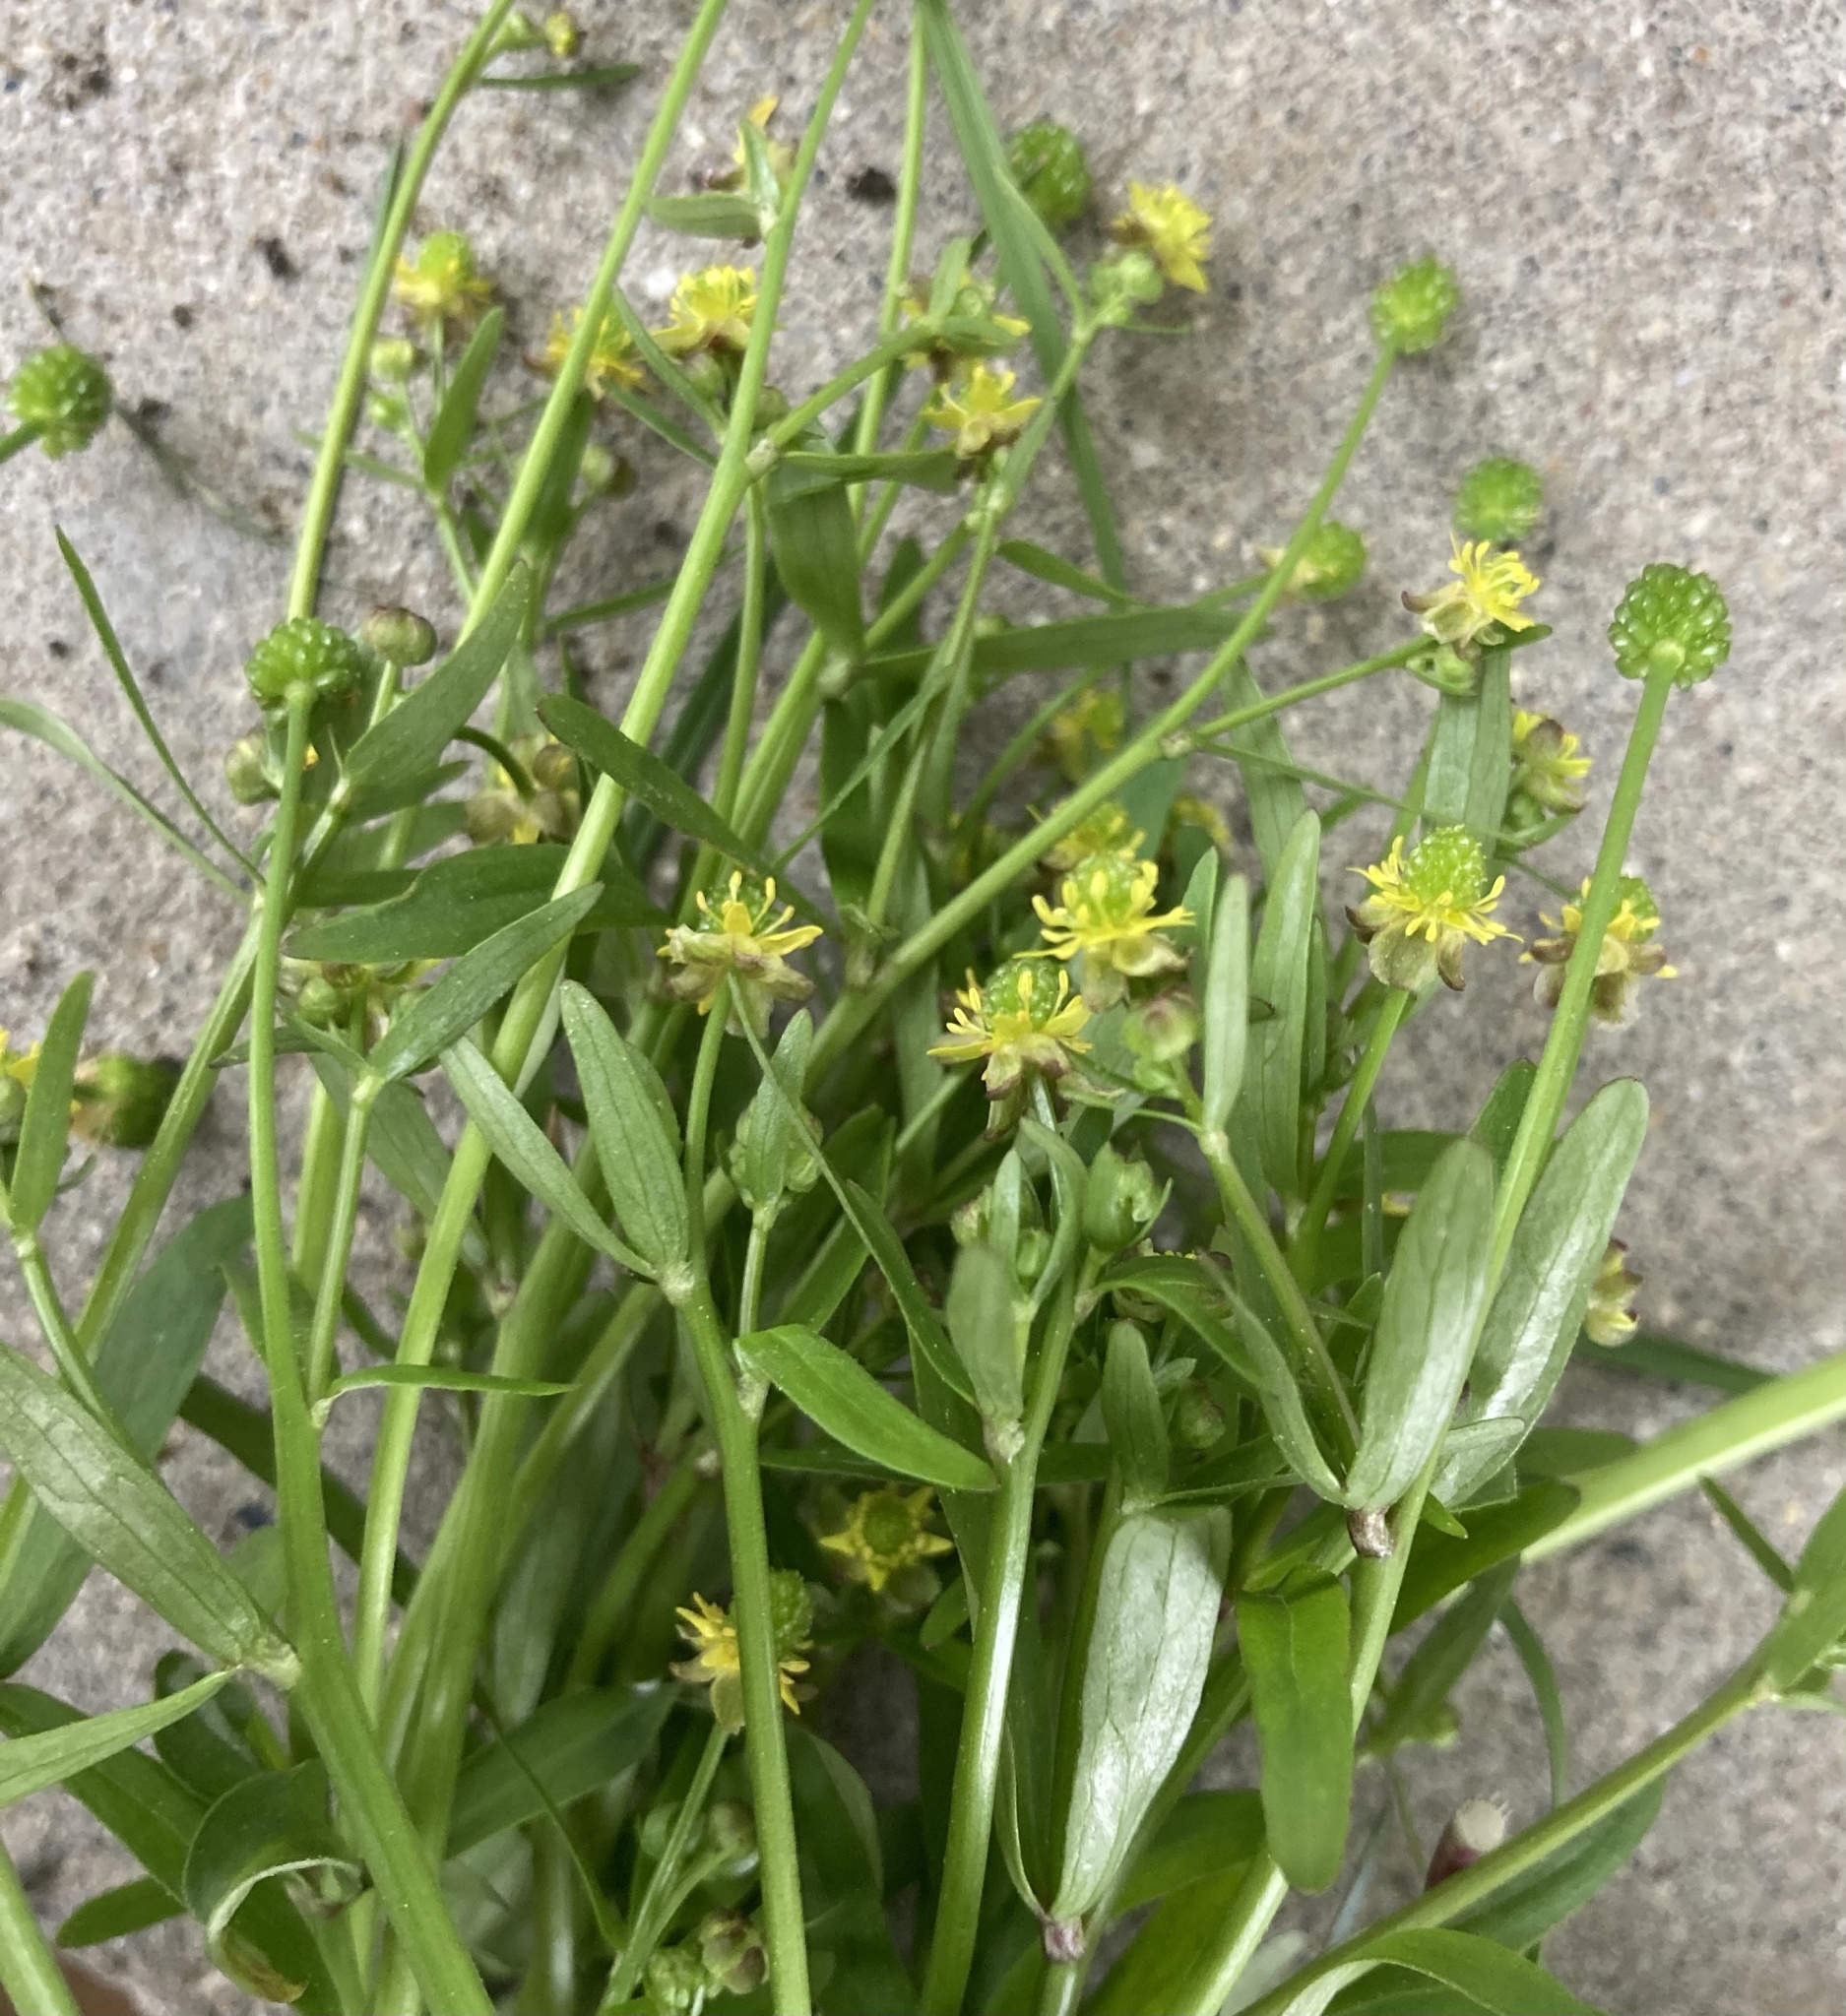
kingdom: Plantae
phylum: Tracheophyta
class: Magnoliopsida
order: Ranunculales
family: Ranunculaceae
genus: Ranunculus
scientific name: Ranunculus abortivus
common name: Early wood buttercup
